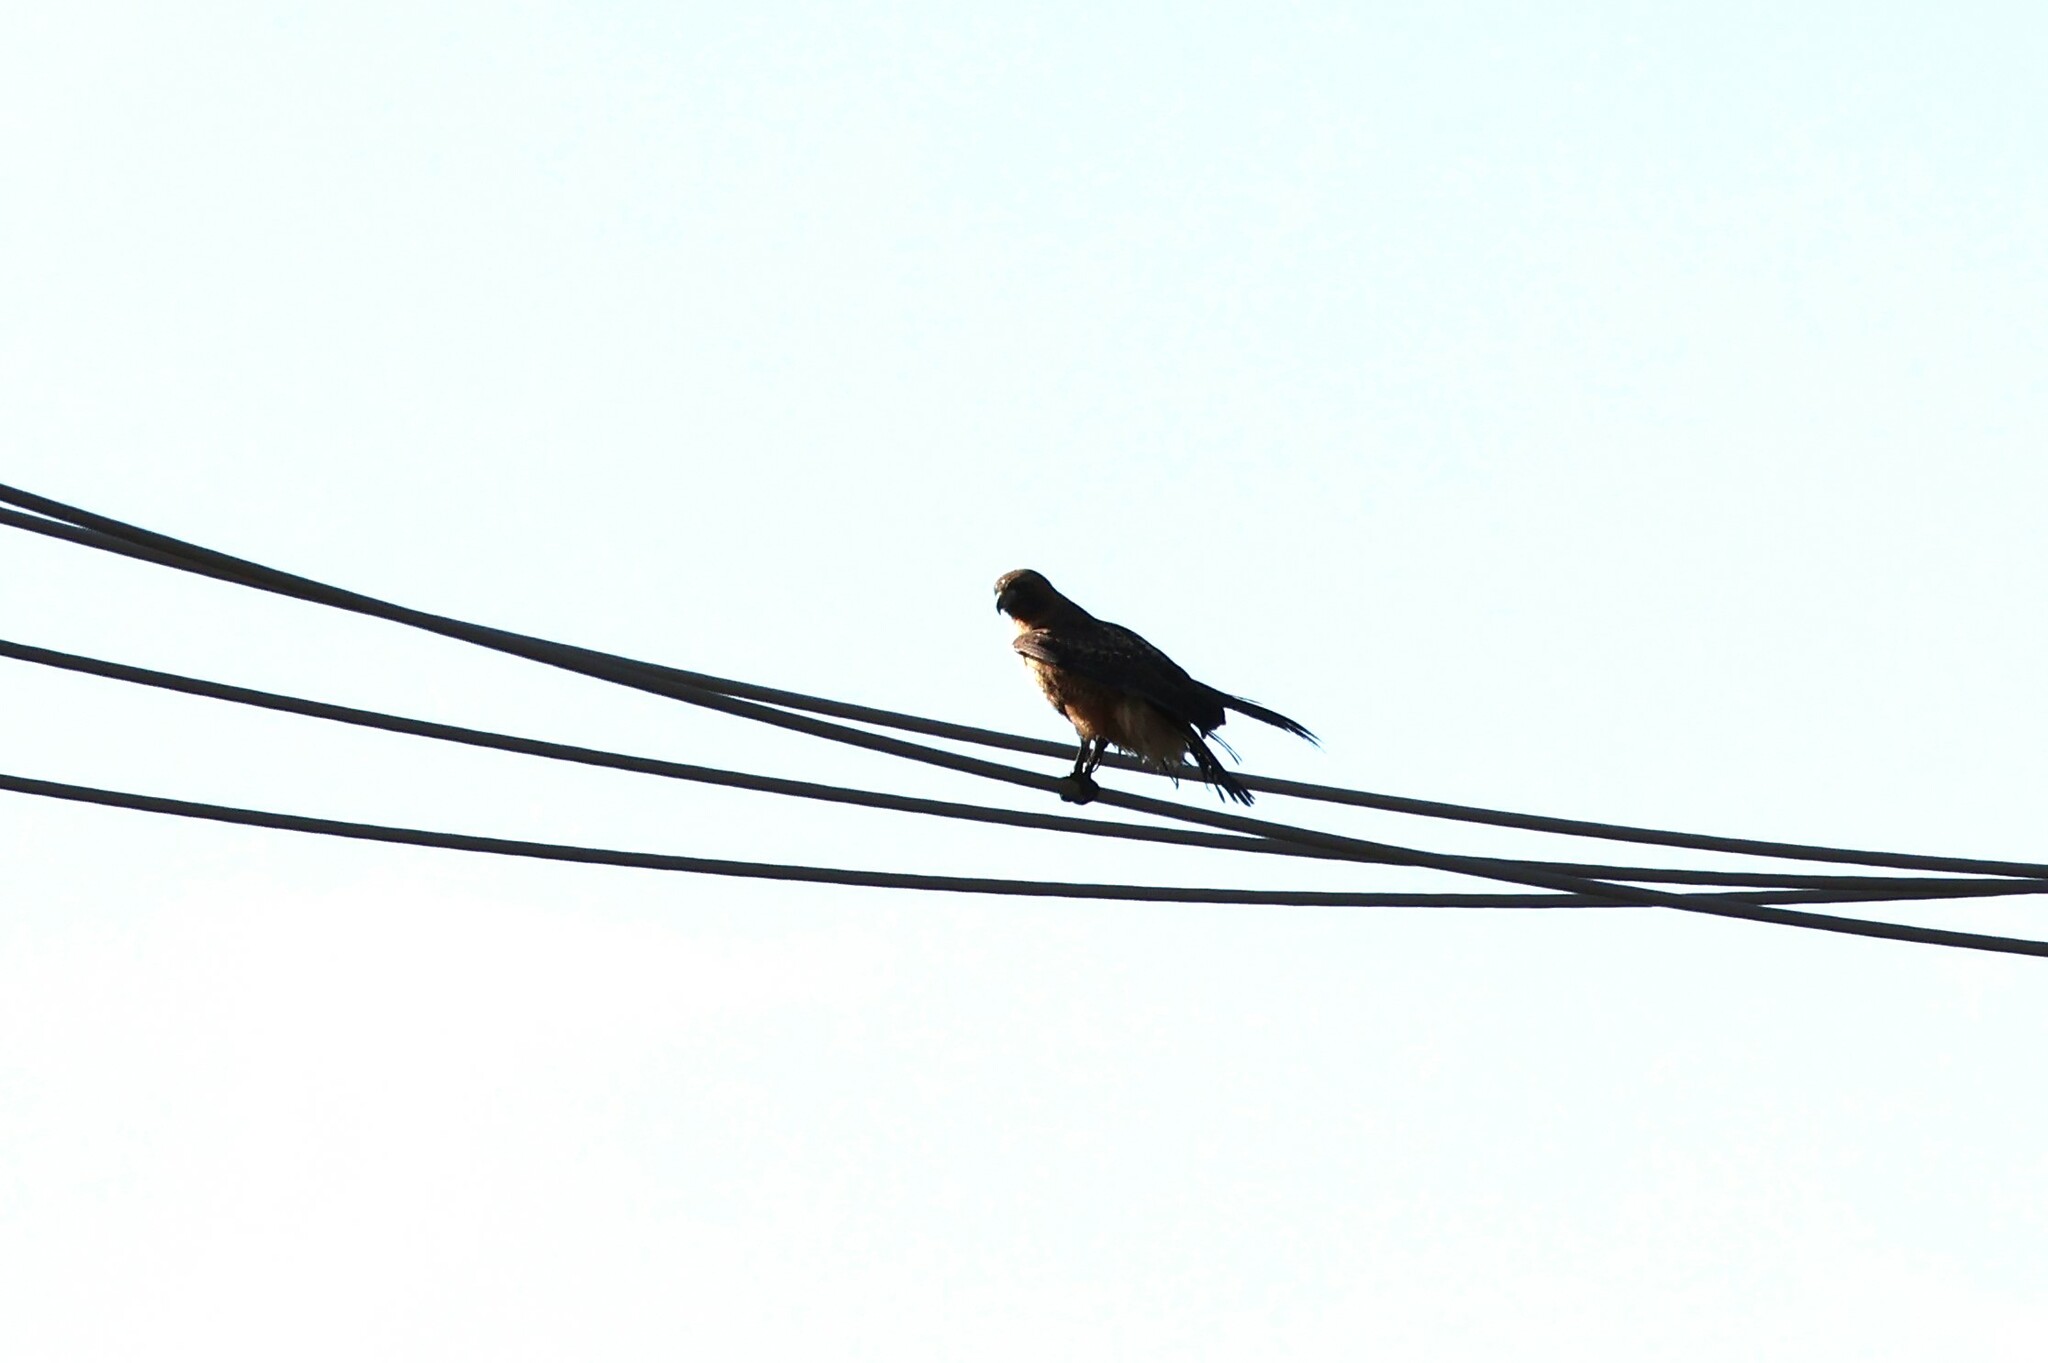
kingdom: Animalia
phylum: Chordata
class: Aves
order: Accipitriformes
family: Accipitridae
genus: Buteo
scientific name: Buteo jamaicensis
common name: Red-tailed hawk
